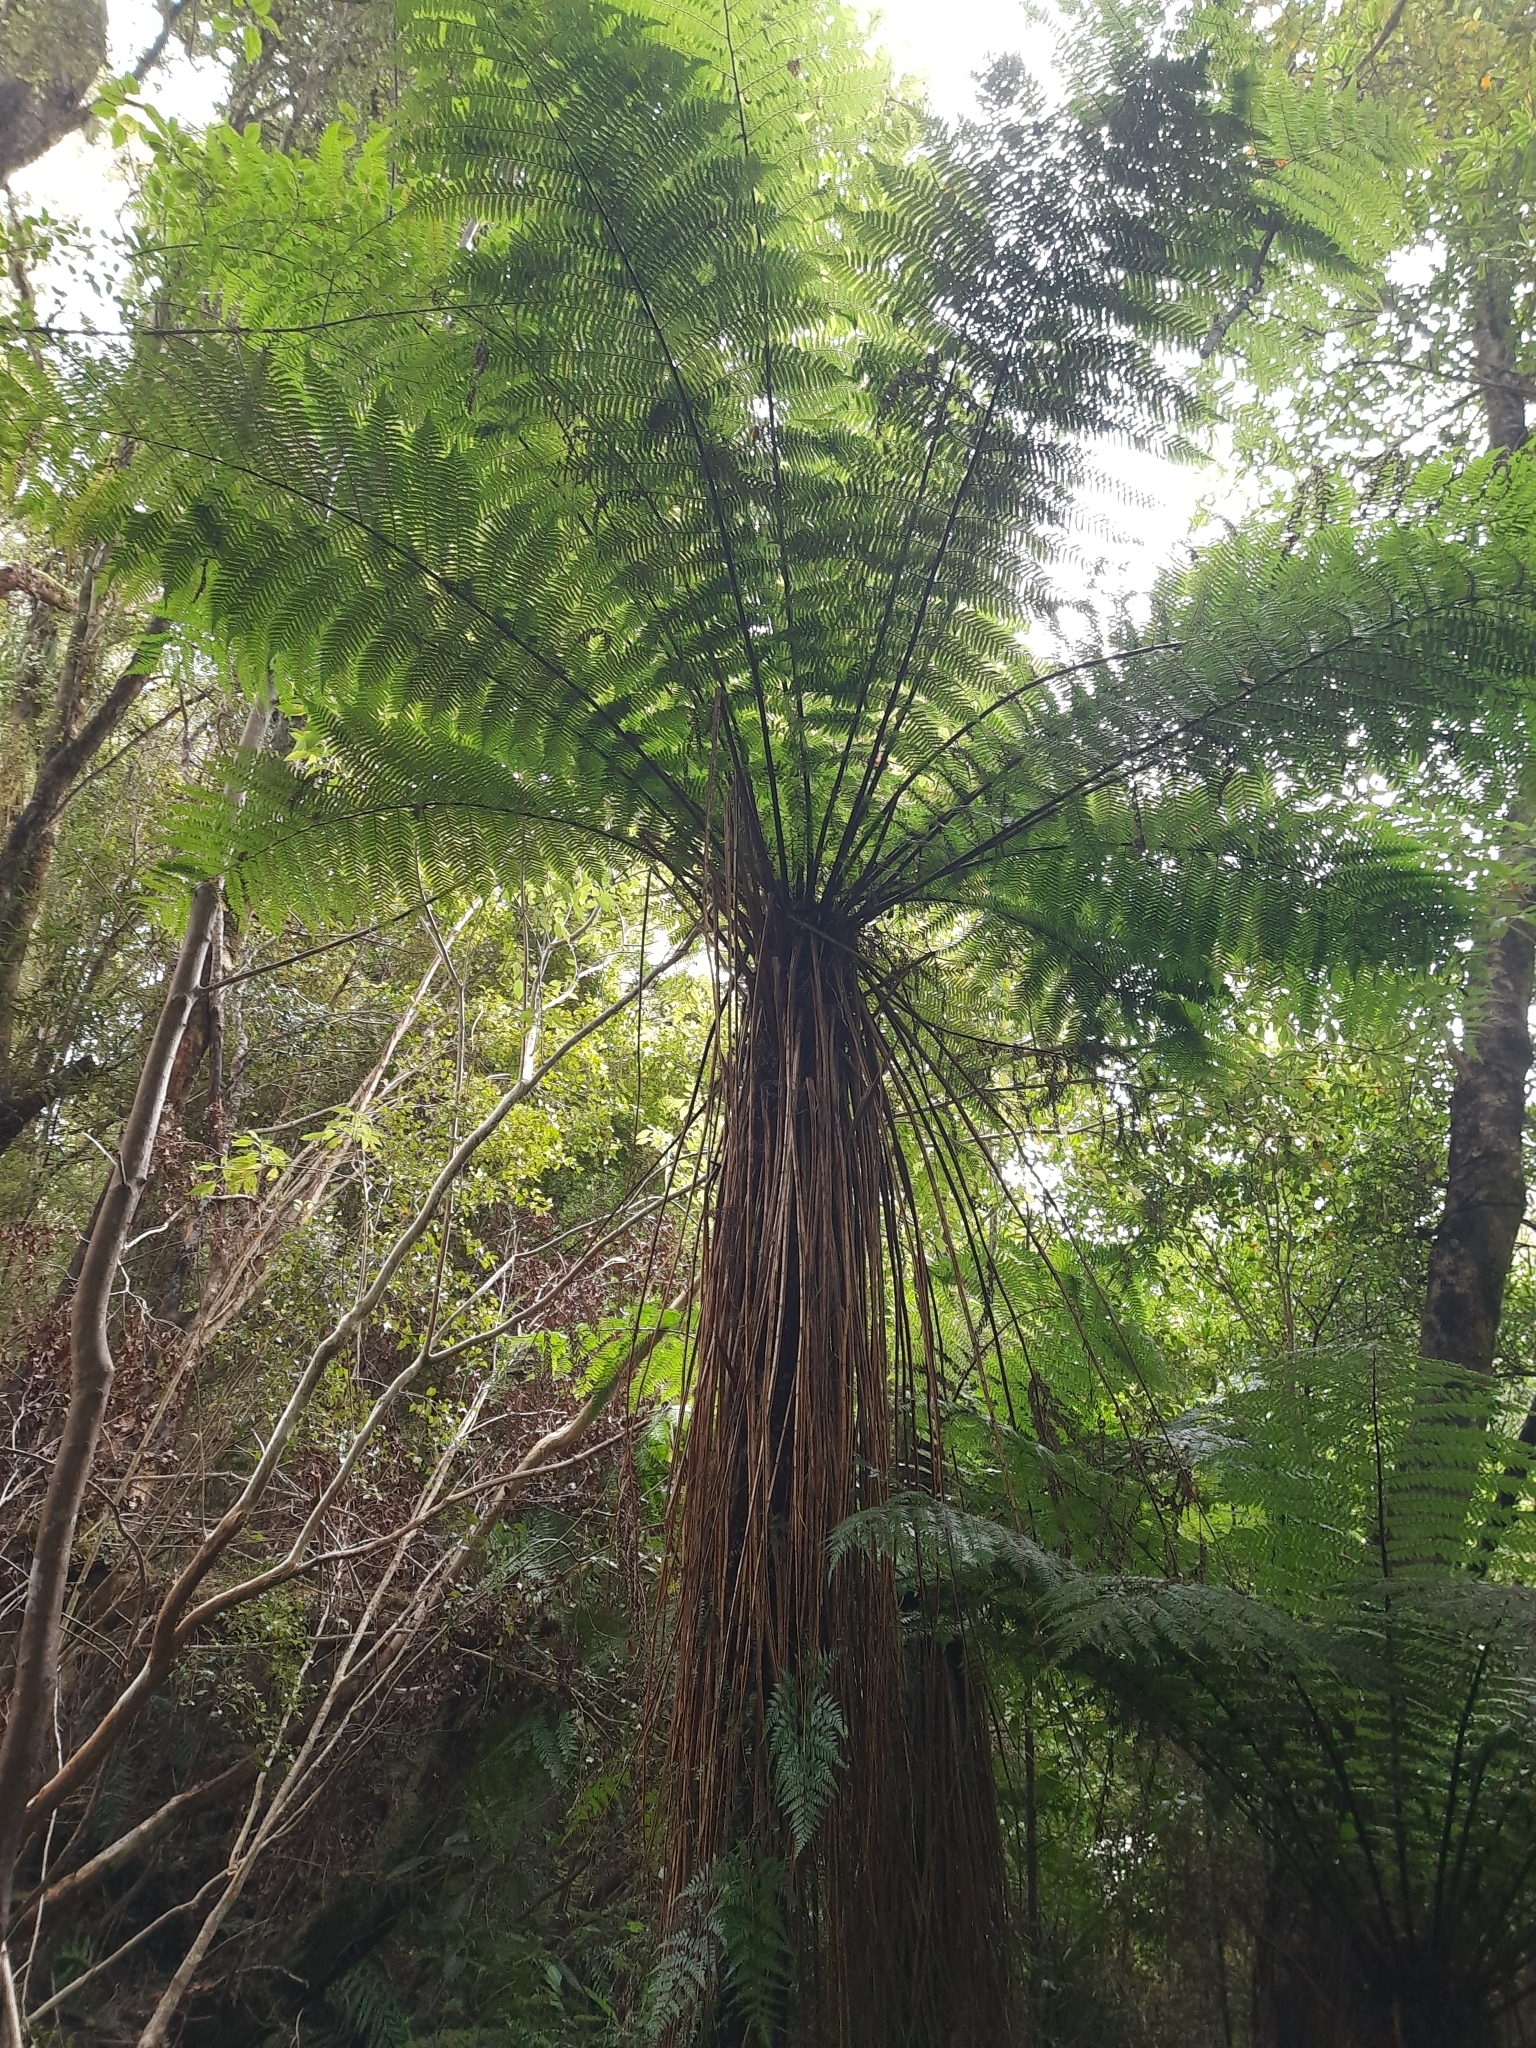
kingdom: Plantae
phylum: Tracheophyta
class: Polypodiopsida
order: Cyatheales
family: Cyatheaceae
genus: Alsophila
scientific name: Alsophila smithii
